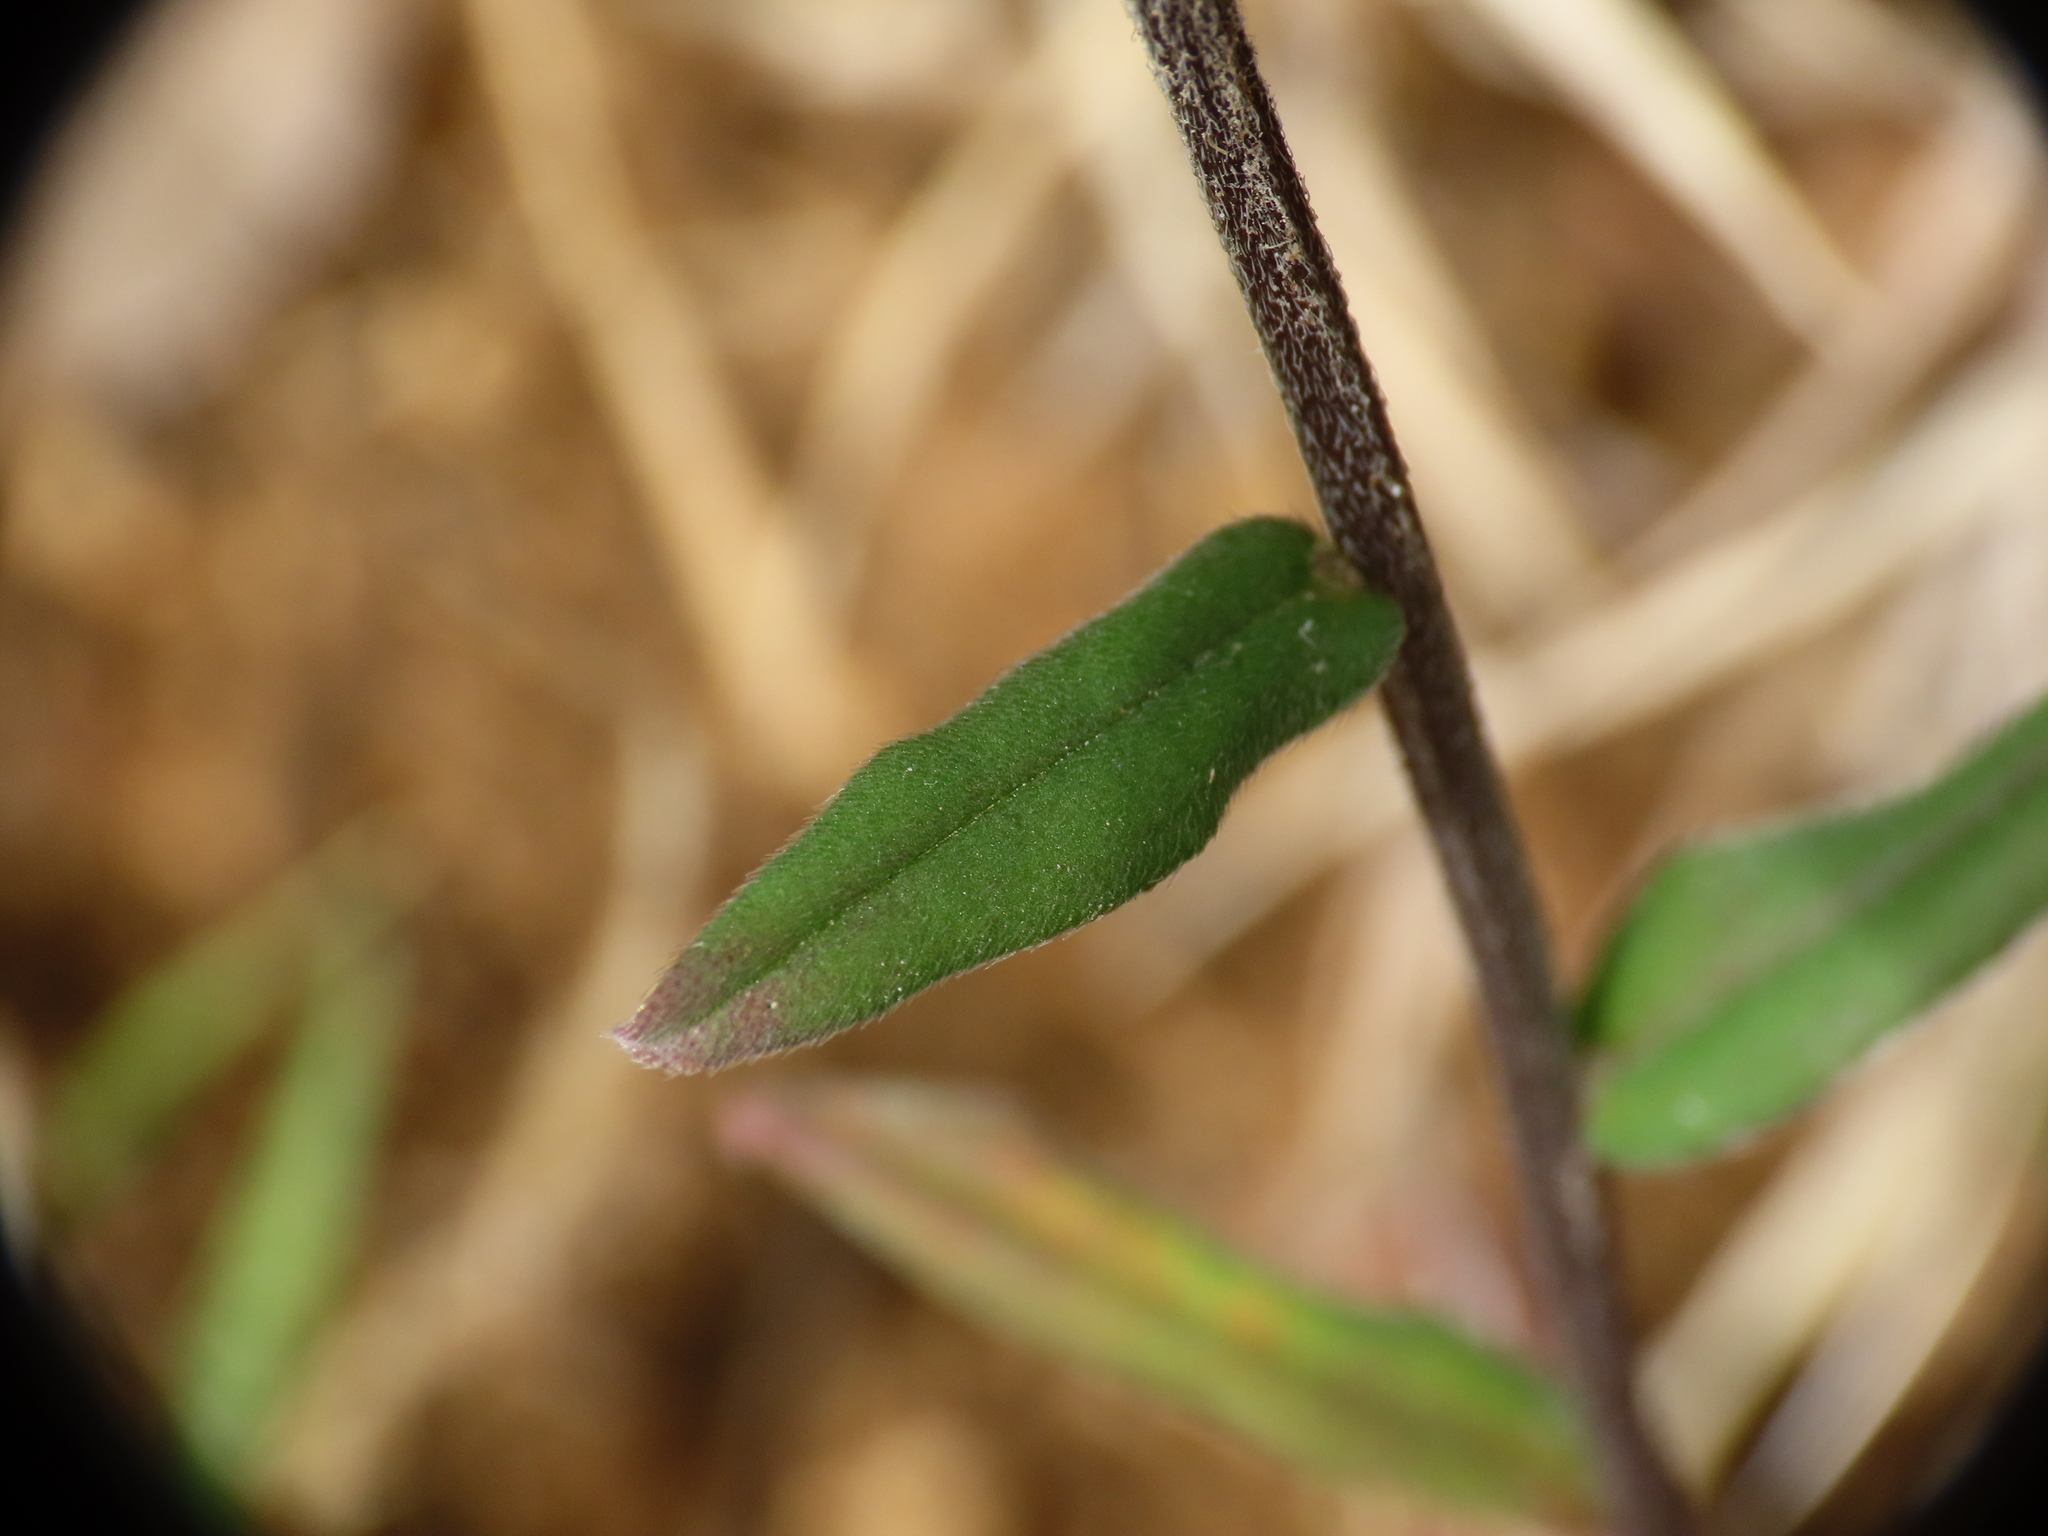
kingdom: Plantae
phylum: Tracheophyta
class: Magnoliopsida
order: Boraginales
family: Boraginaceae
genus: Buglossoides
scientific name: Buglossoides arvensis
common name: Corn gromwell
